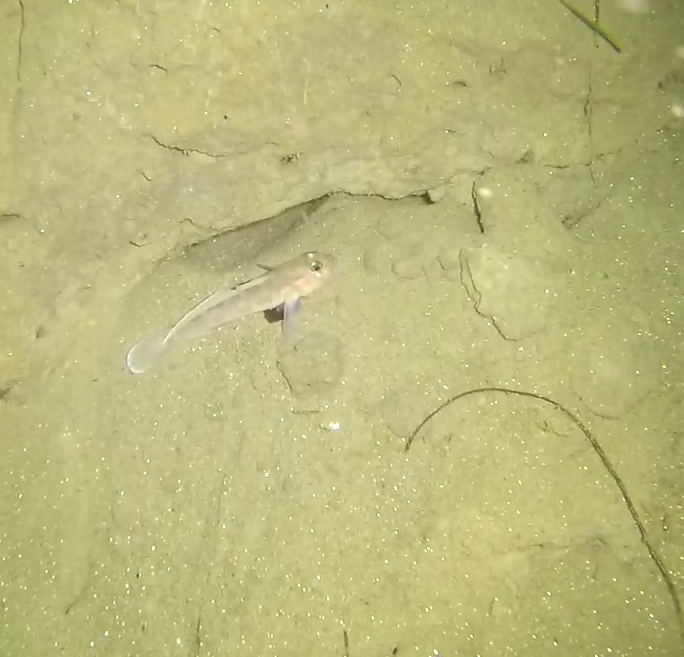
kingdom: Animalia
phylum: Chordata
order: Perciformes
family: Gobiidae
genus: Rhinogobiops
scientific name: Rhinogobiops nicholsii
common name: Blackeye goby
